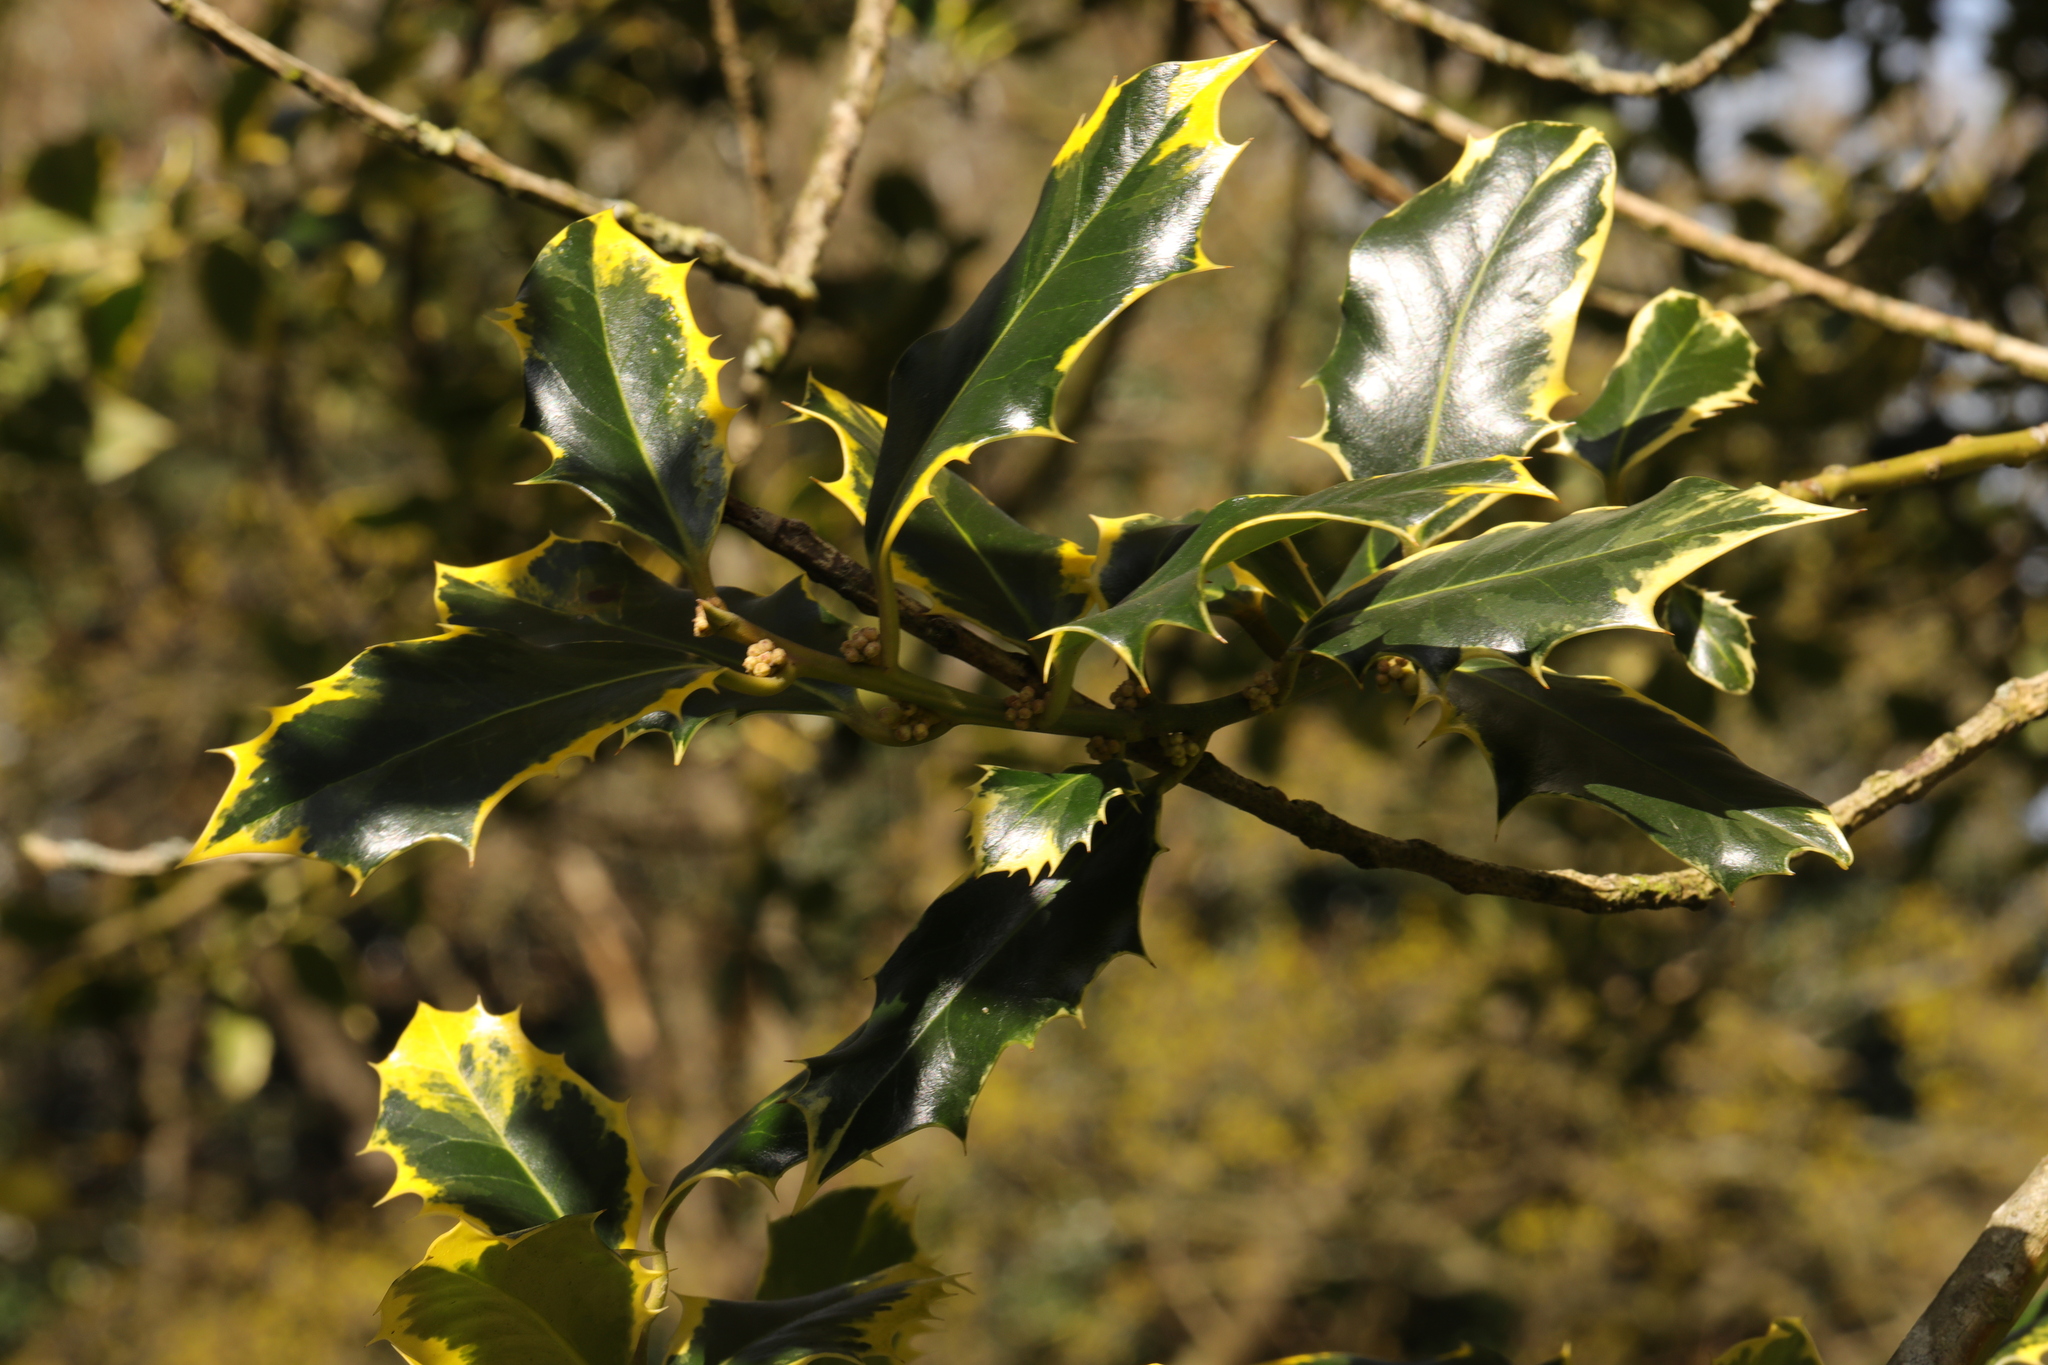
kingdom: Plantae
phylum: Tracheophyta
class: Magnoliopsida
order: Aquifoliales
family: Aquifoliaceae
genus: Ilex
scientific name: Ilex aquifolium
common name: English holly
